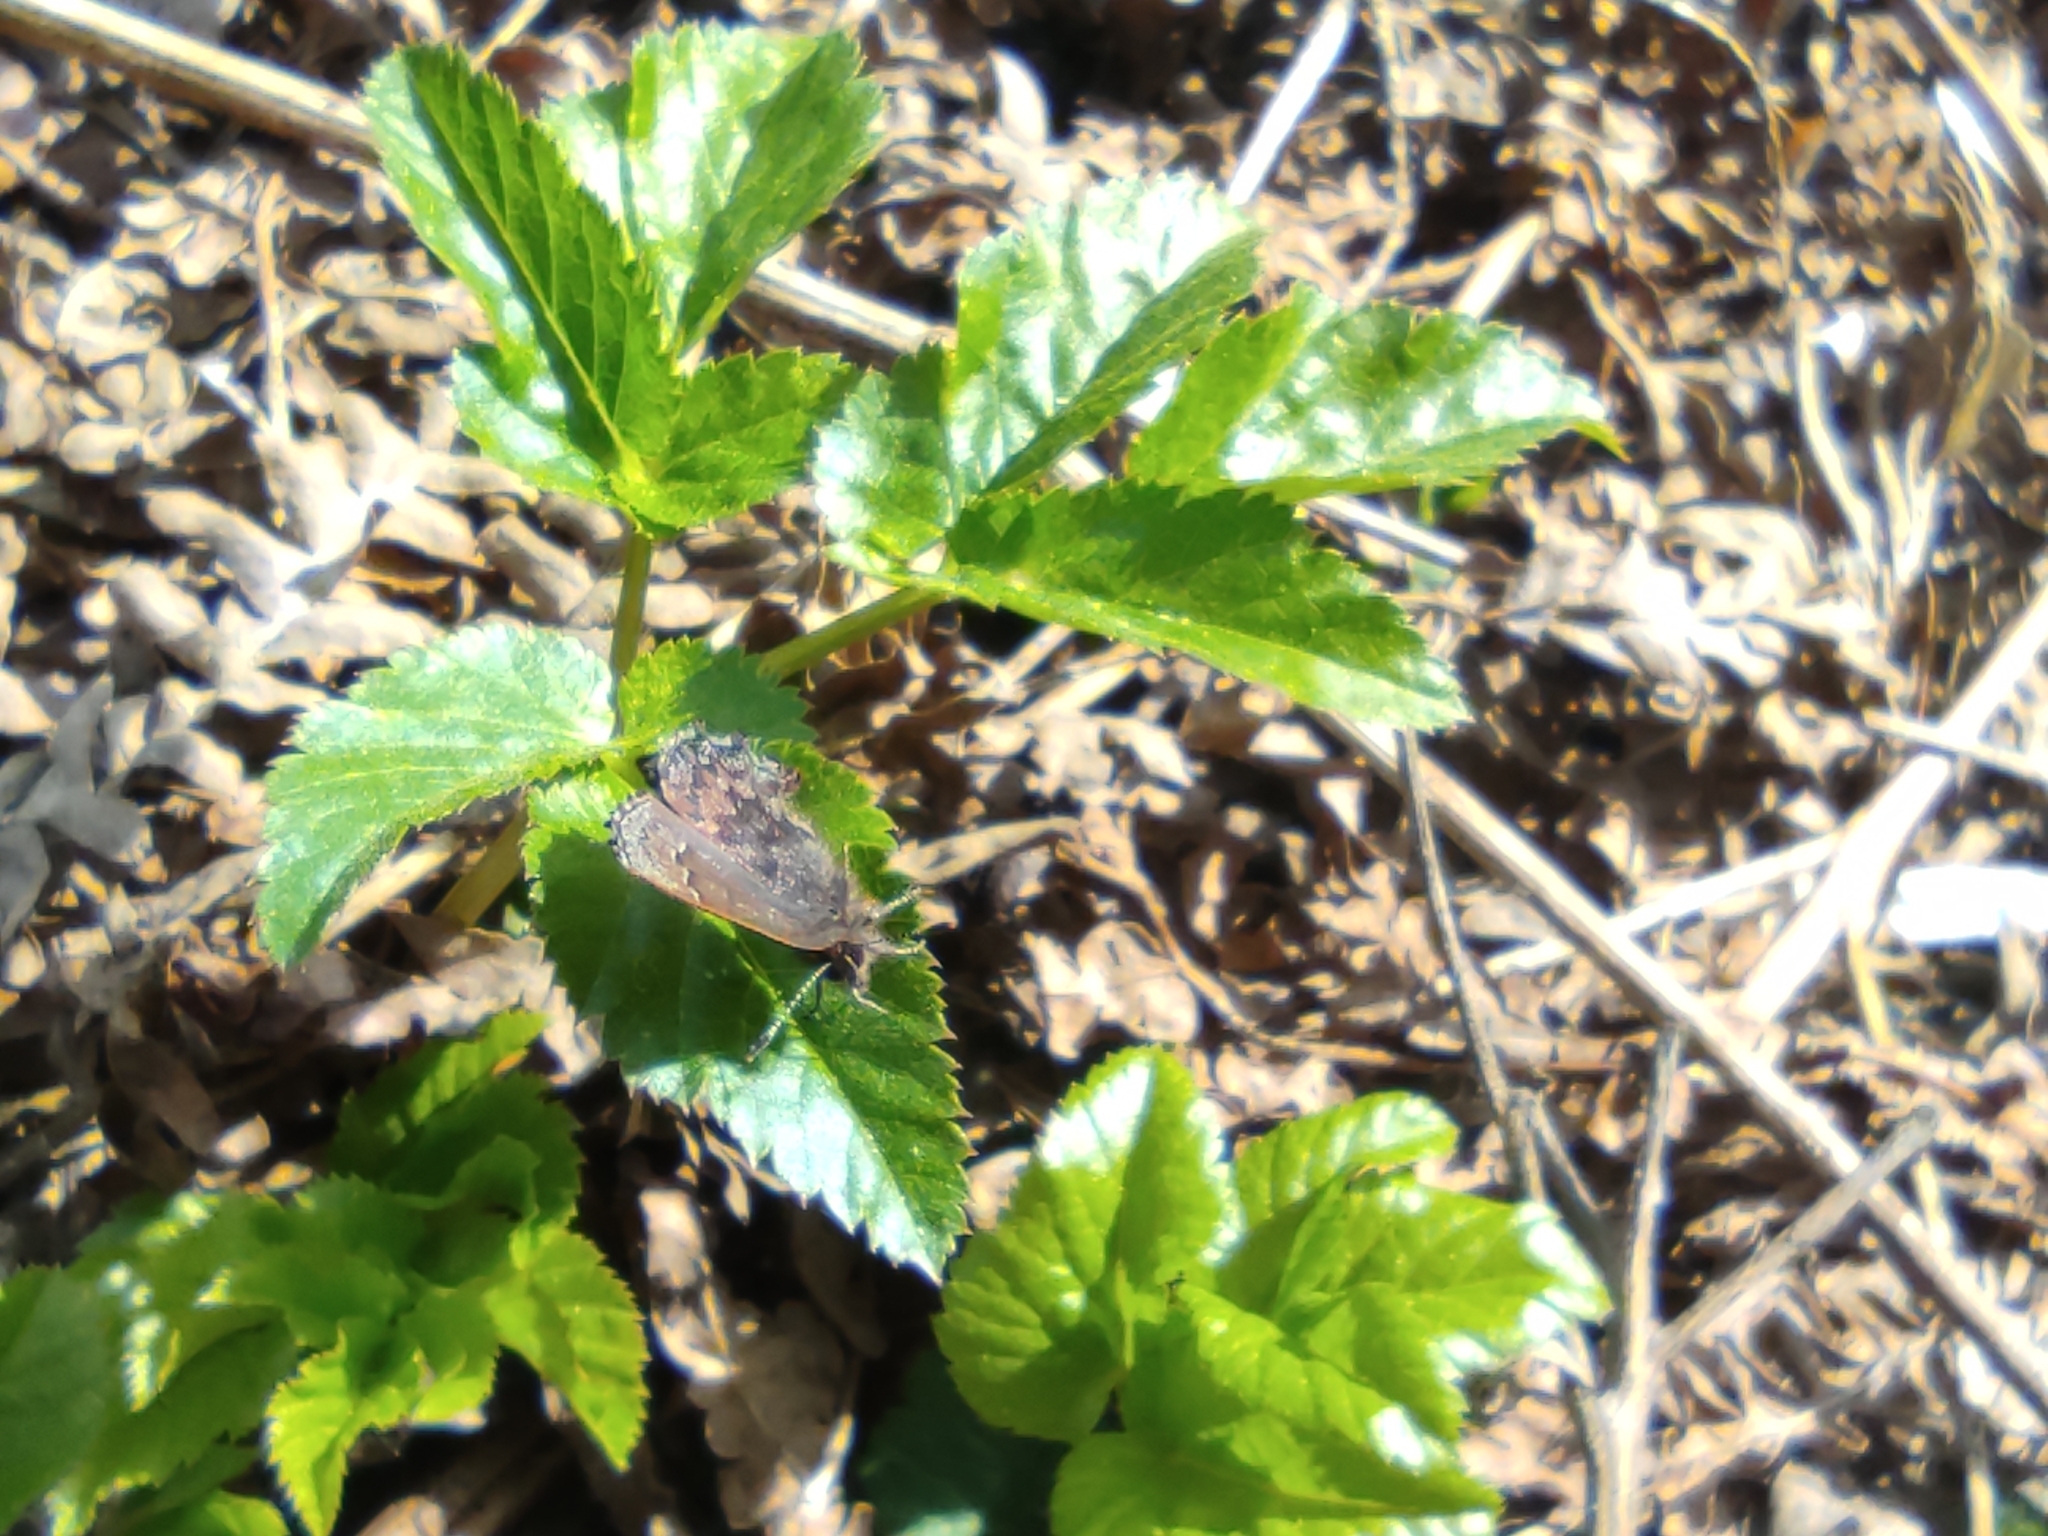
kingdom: Animalia
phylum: Arthropoda
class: Insecta
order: Lepidoptera
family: Lycaenidae
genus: Ginzia
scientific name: Ginzia Ahlbergia frivaldszkyi
